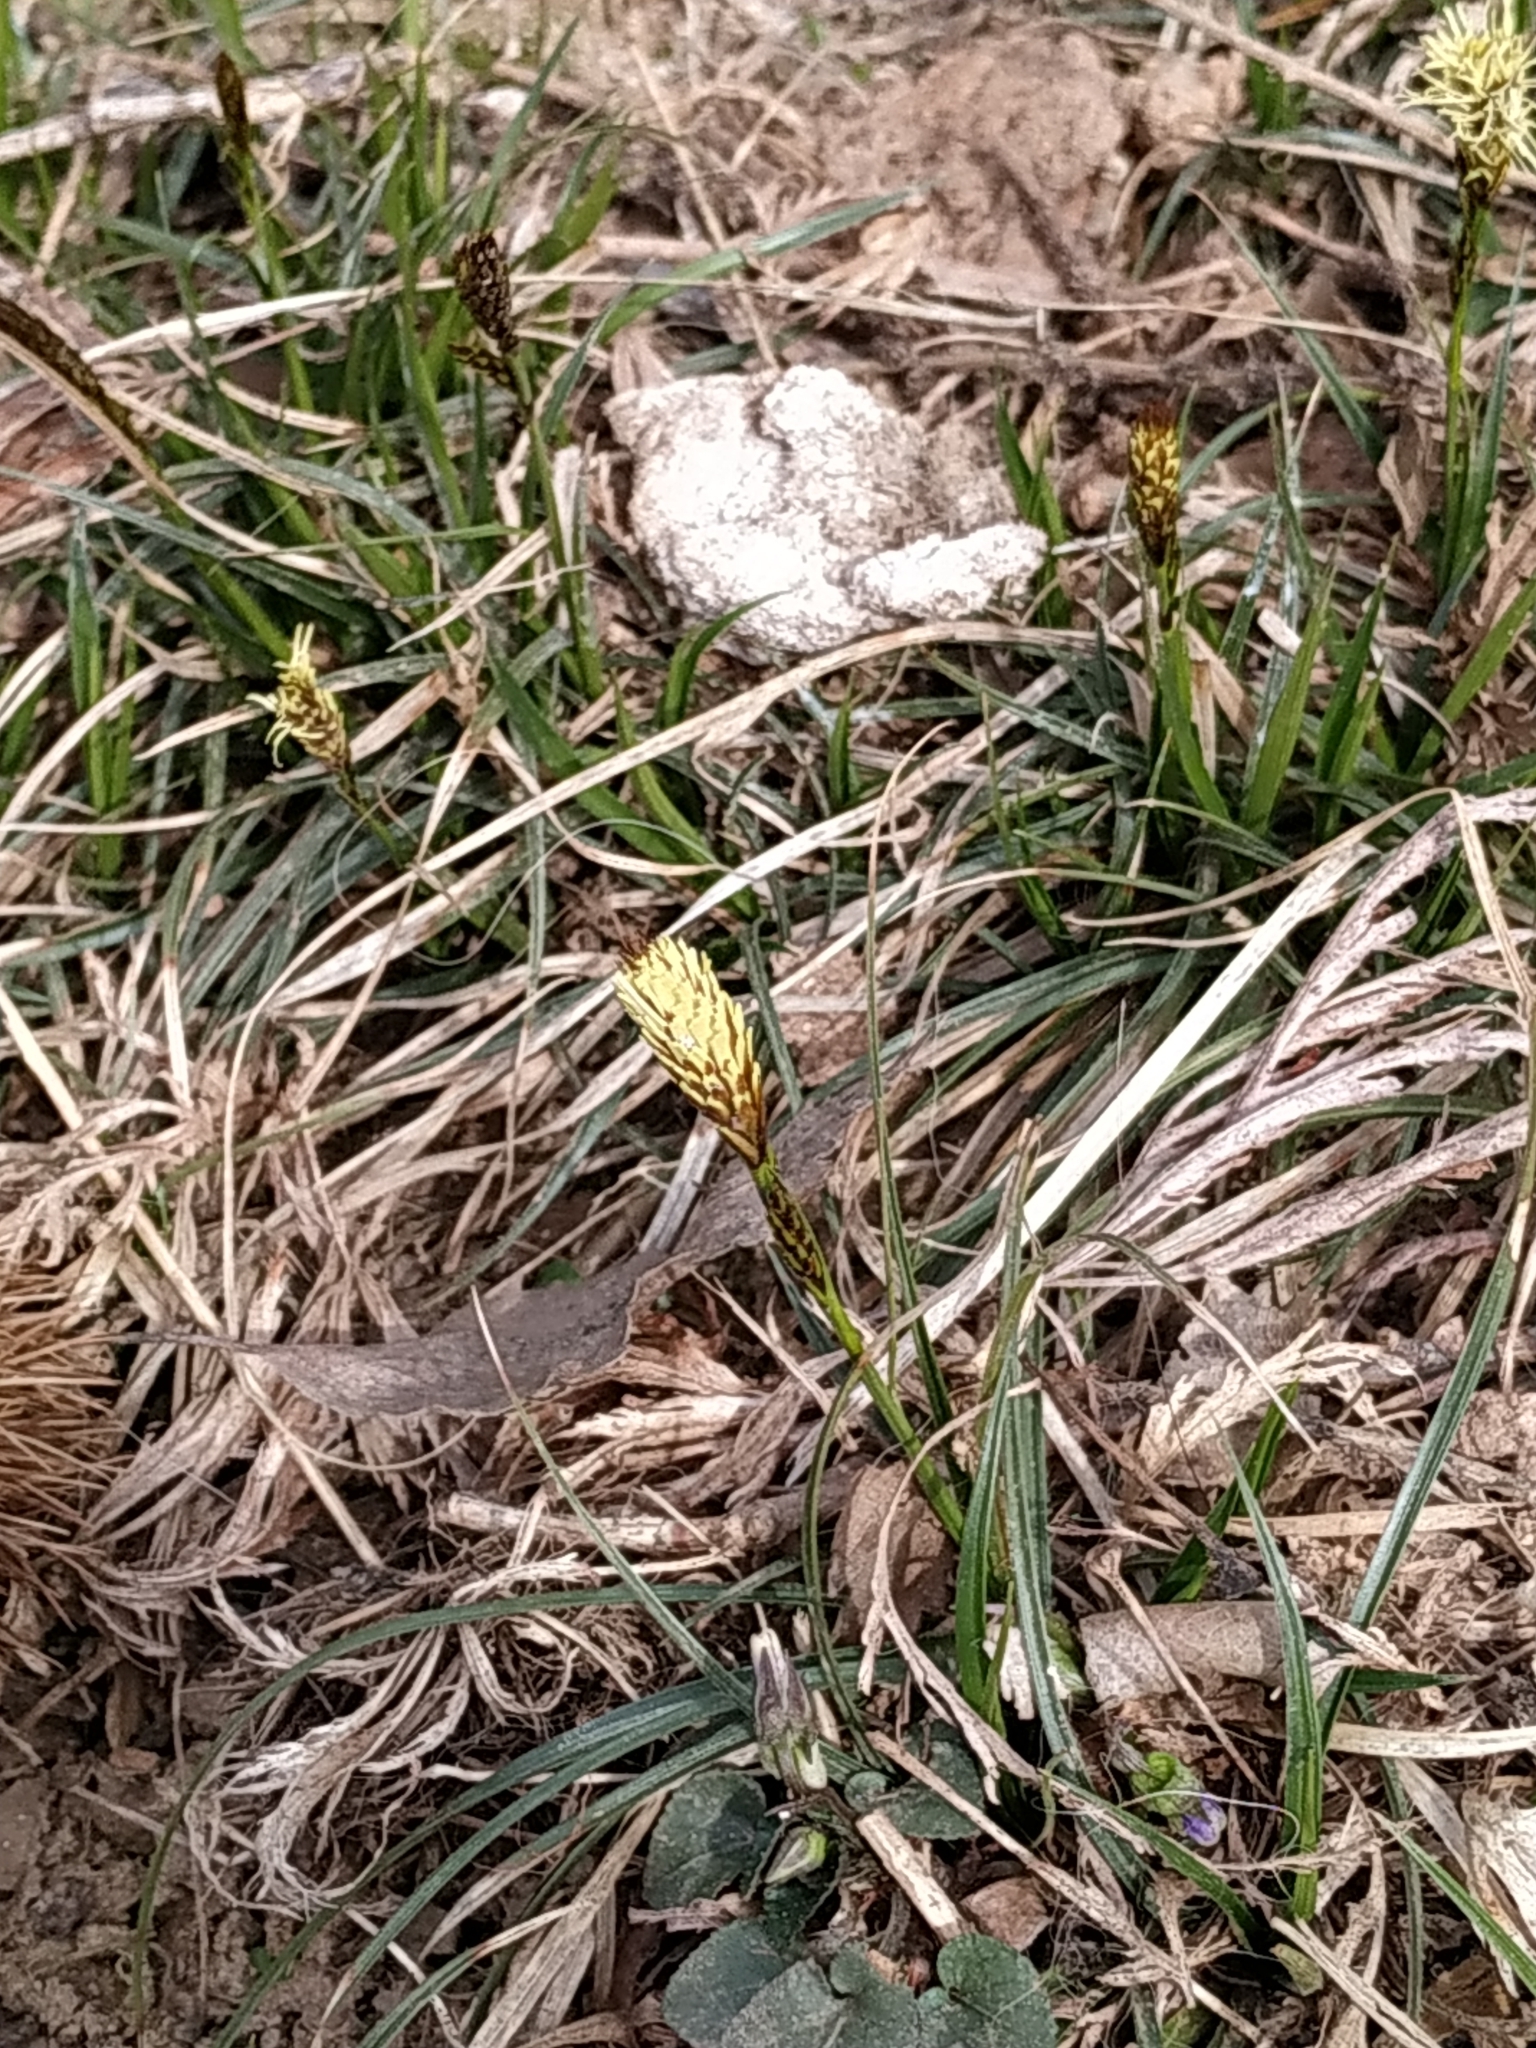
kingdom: Plantae
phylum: Tracheophyta
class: Liliopsida
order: Poales
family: Cyperaceae
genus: Carex
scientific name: Carex caryophyllea
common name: Spring sedge
